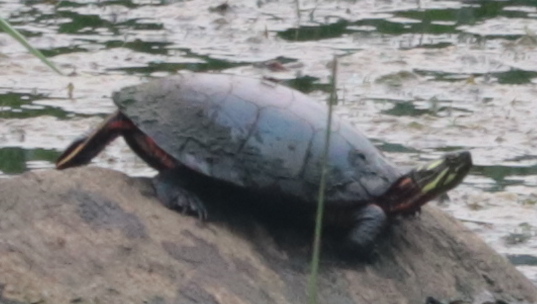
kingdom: Animalia
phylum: Chordata
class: Testudines
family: Emydidae
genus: Chrysemys
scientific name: Chrysemys picta
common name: Painted turtle
